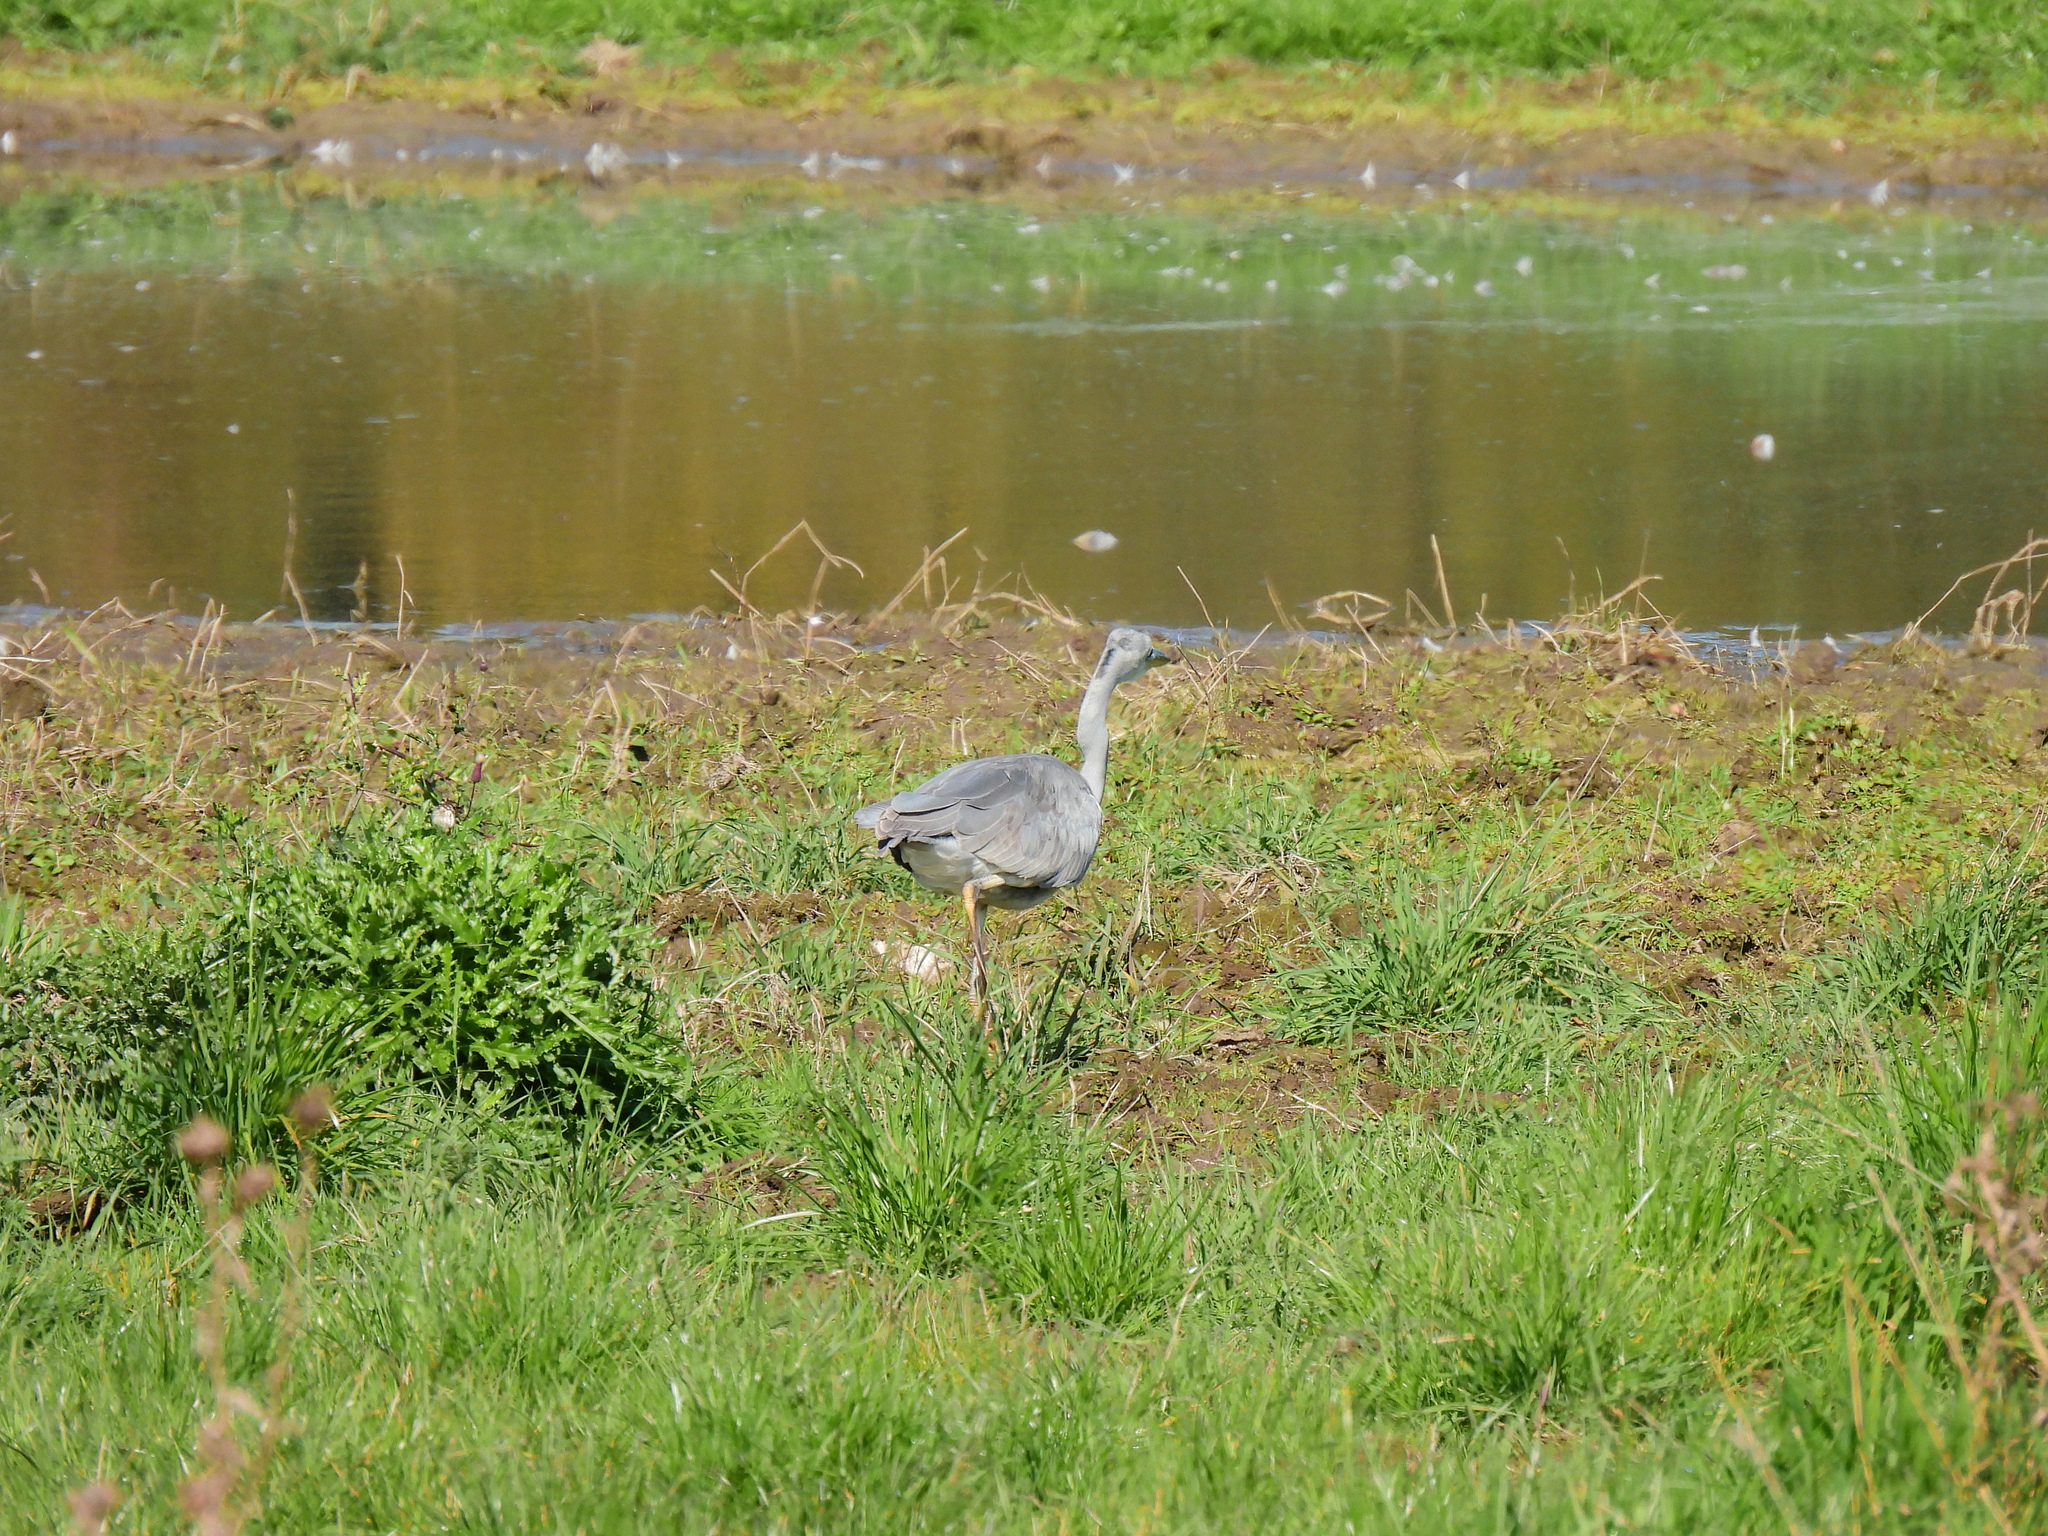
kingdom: Animalia
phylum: Chordata
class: Aves
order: Pelecaniformes
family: Ardeidae
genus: Ardea
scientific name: Ardea cinerea
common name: Grey heron
